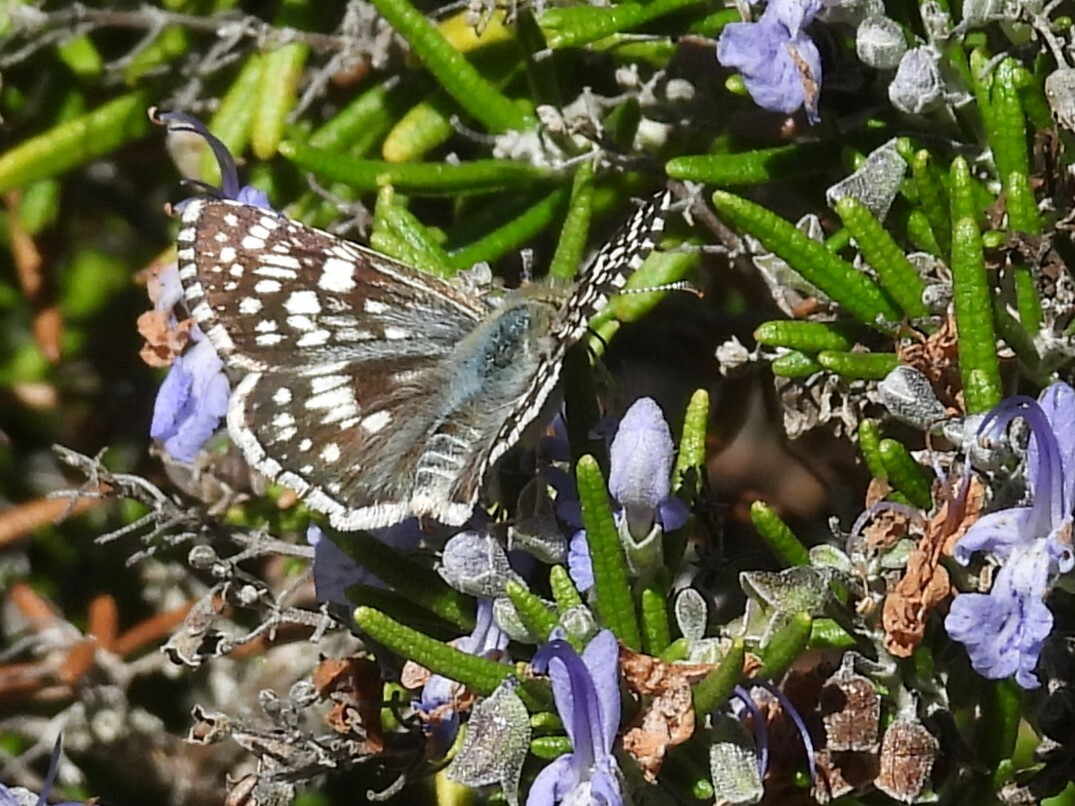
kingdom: Animalia
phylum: Arthropoda
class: Insecta
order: Lepidoptera
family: Hesperiidae
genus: Burnsius
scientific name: Burnsius communis
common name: Common checkered-skipper
